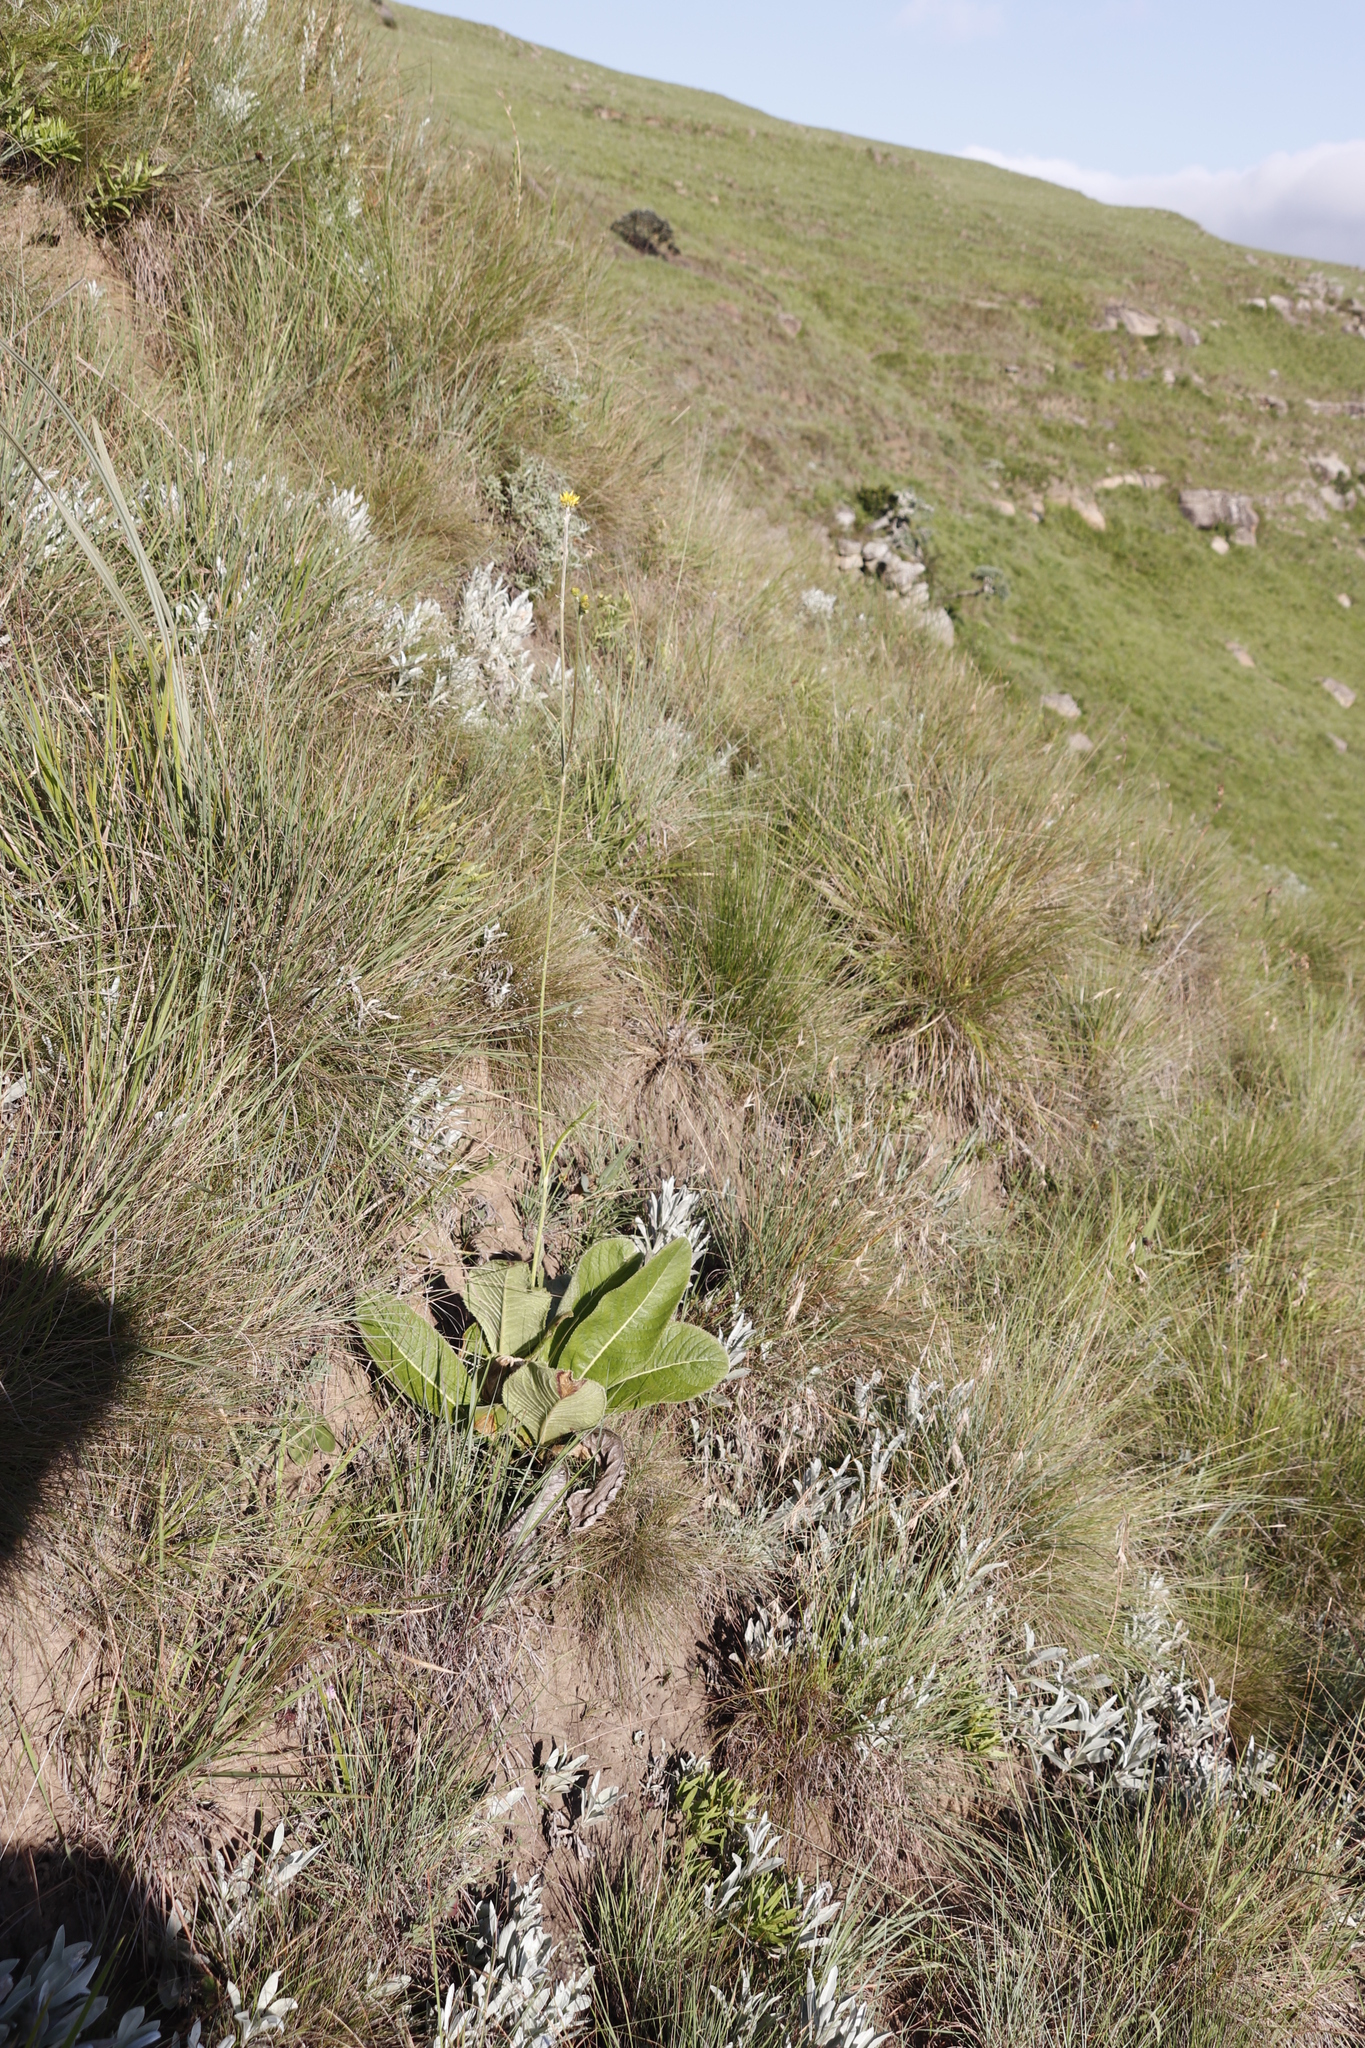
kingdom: Plantae
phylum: Tracheophyta
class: Magnoliopsida
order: Asterales
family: Asteraceae
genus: Berkheya
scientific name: Berkheya setifera
